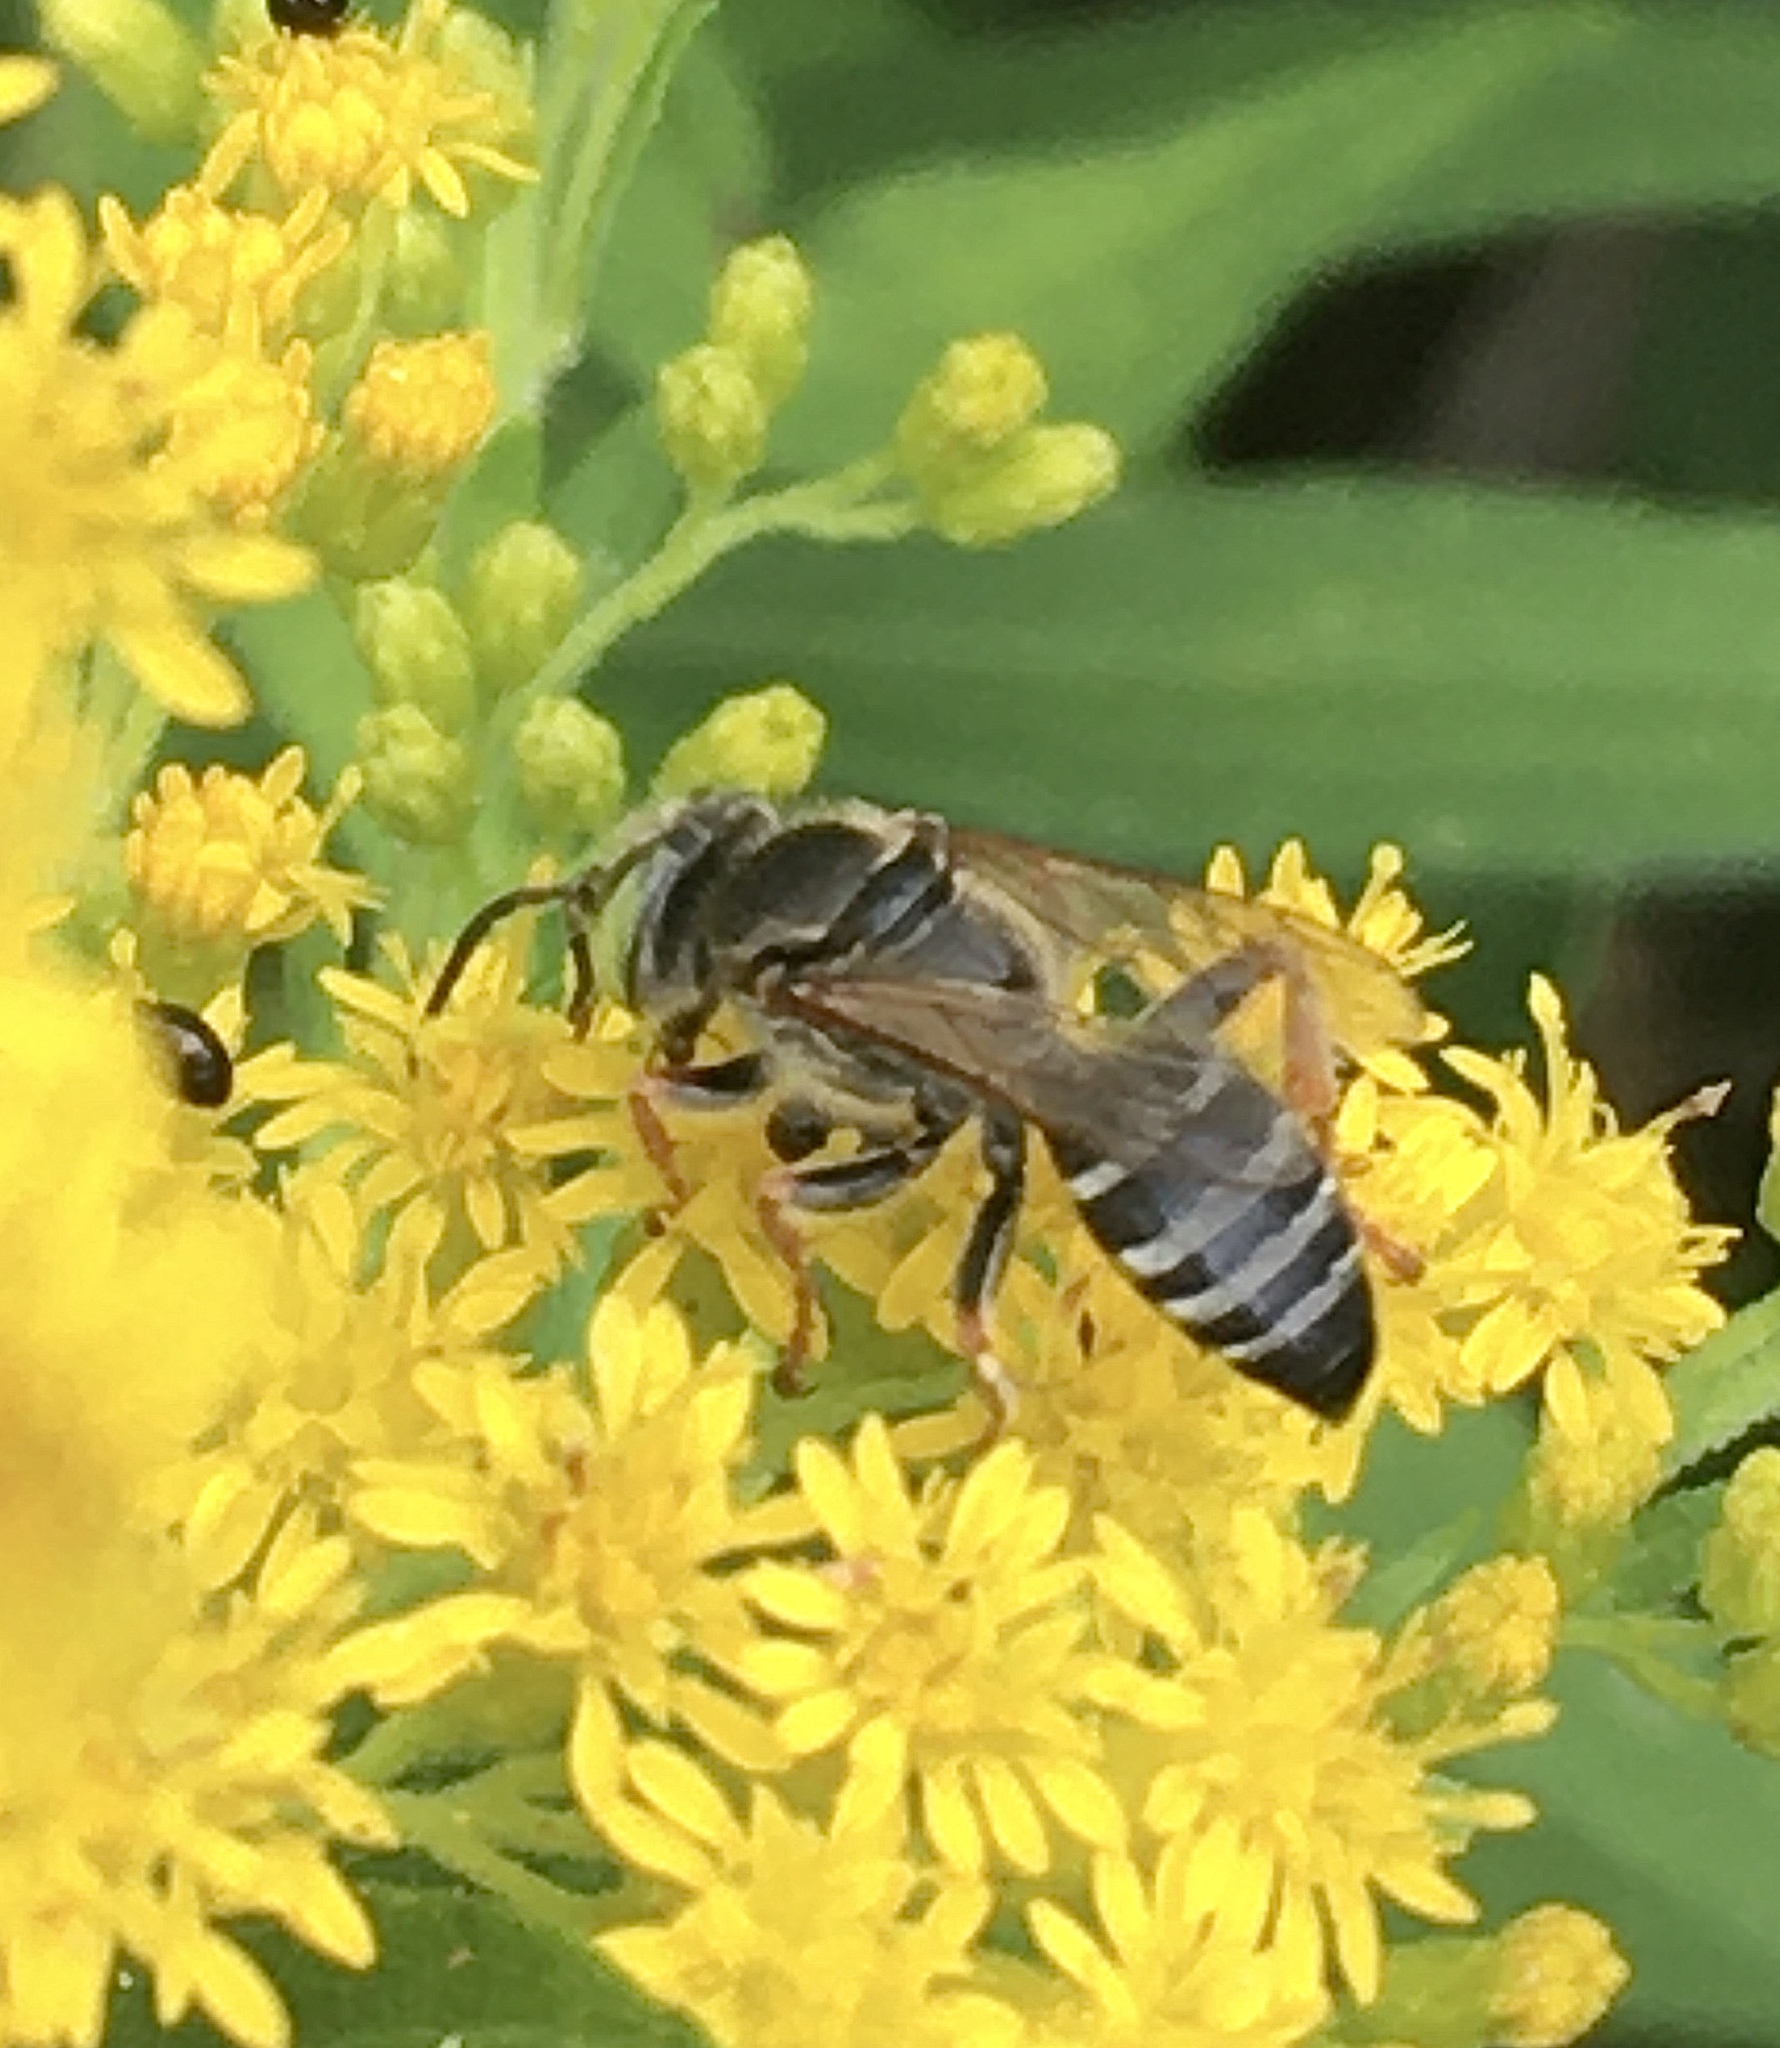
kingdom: Animalia
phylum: Arthropoda
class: Insecta
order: Hymenoptera
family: Crabronidae
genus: Tachytes
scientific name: Tachytes
